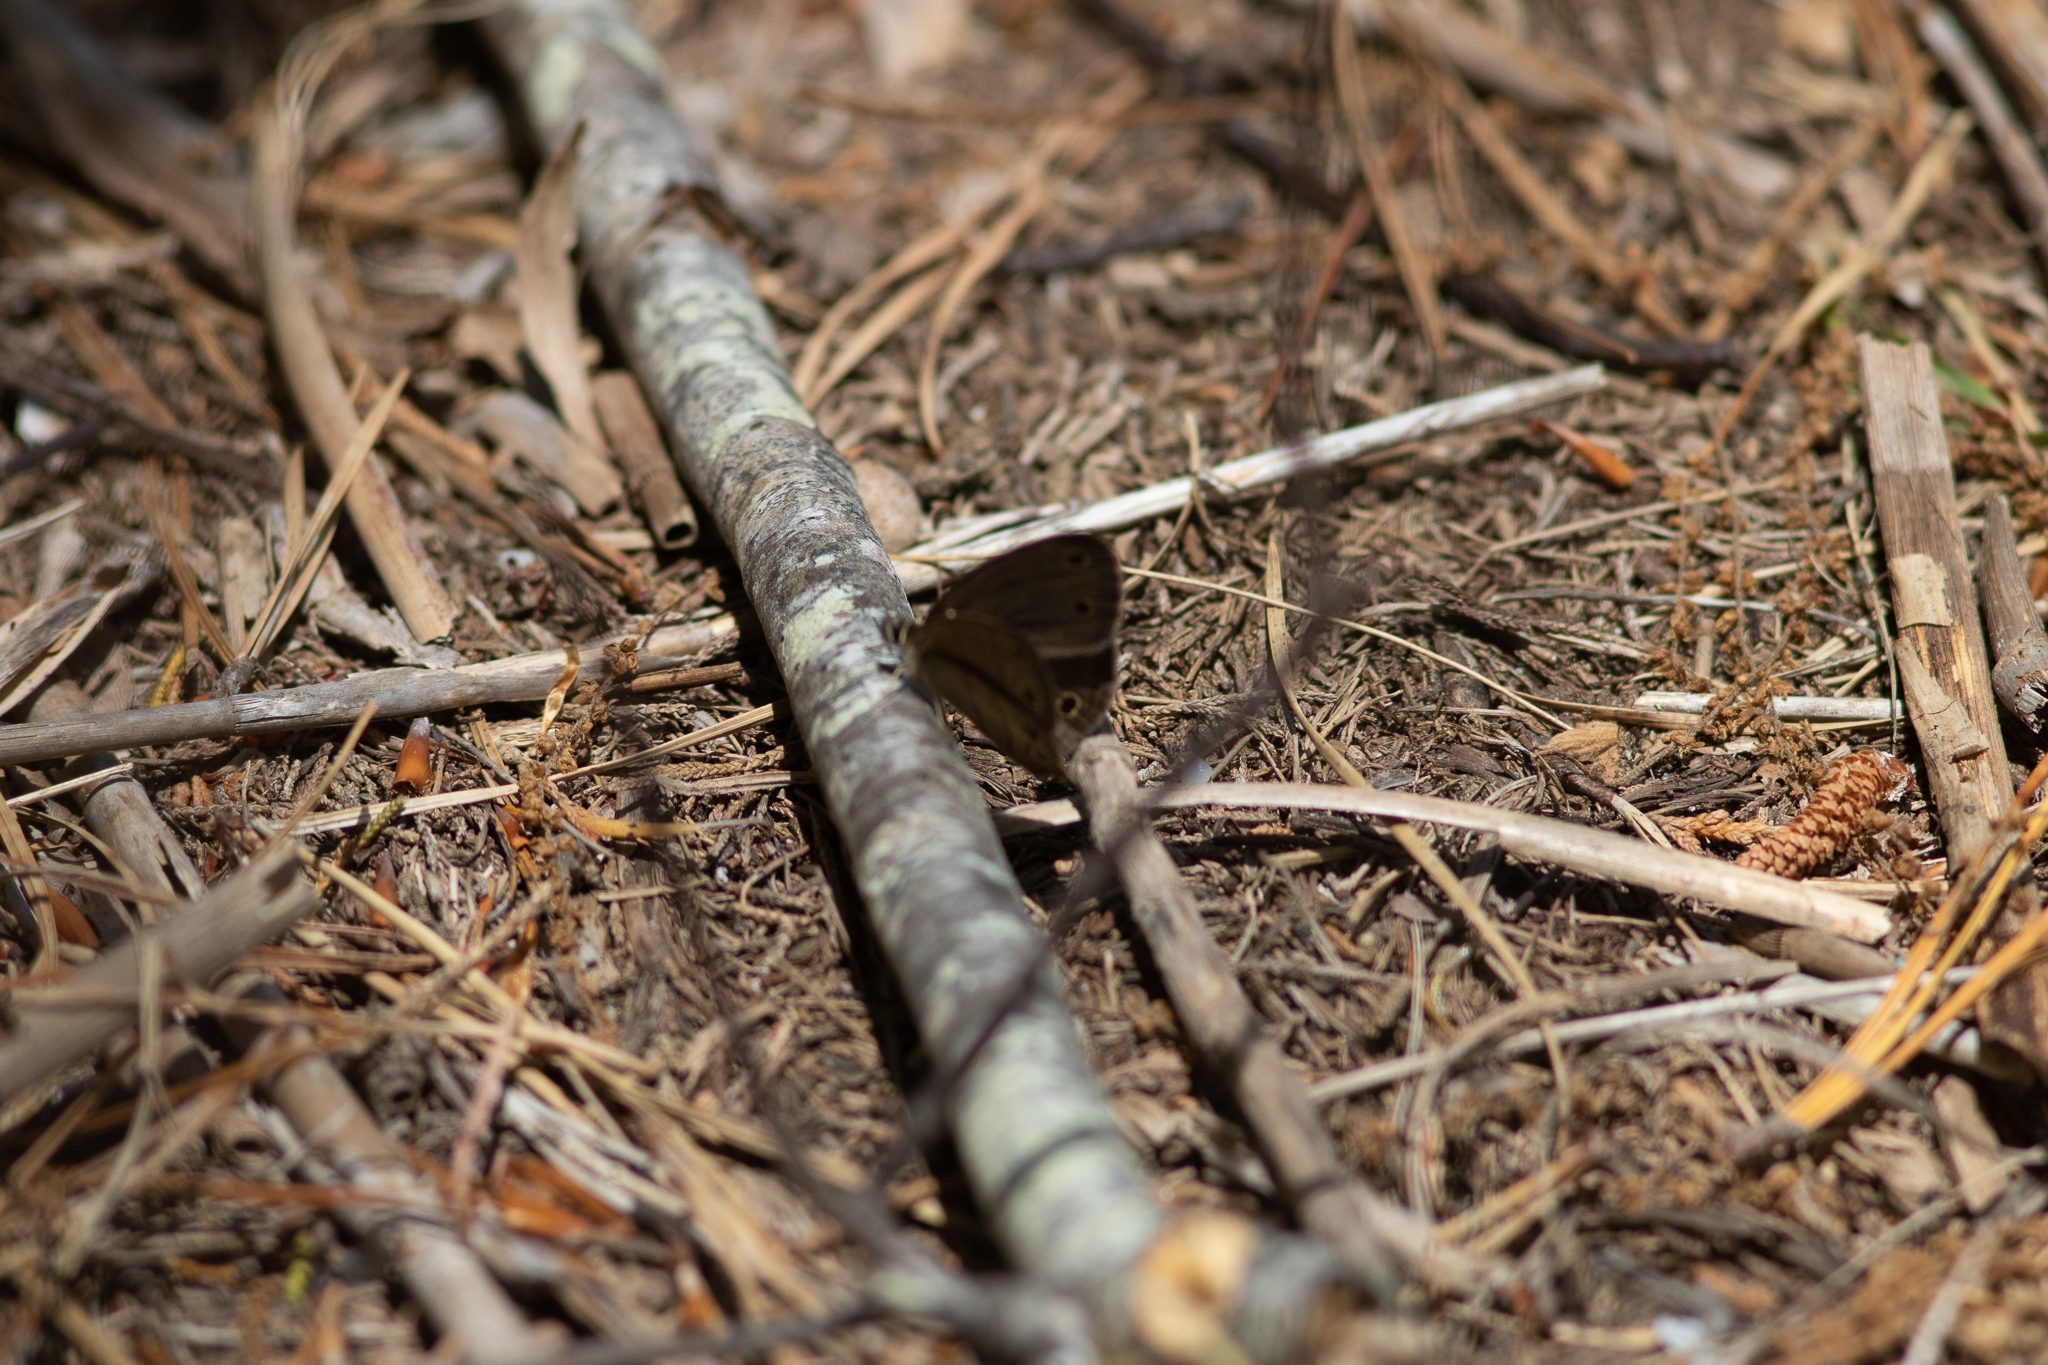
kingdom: Animalia
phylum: Arthropoda
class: Insecta
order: Lepidoptera
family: Nymphalidae
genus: Euptychia
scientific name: Euptychia cymela
